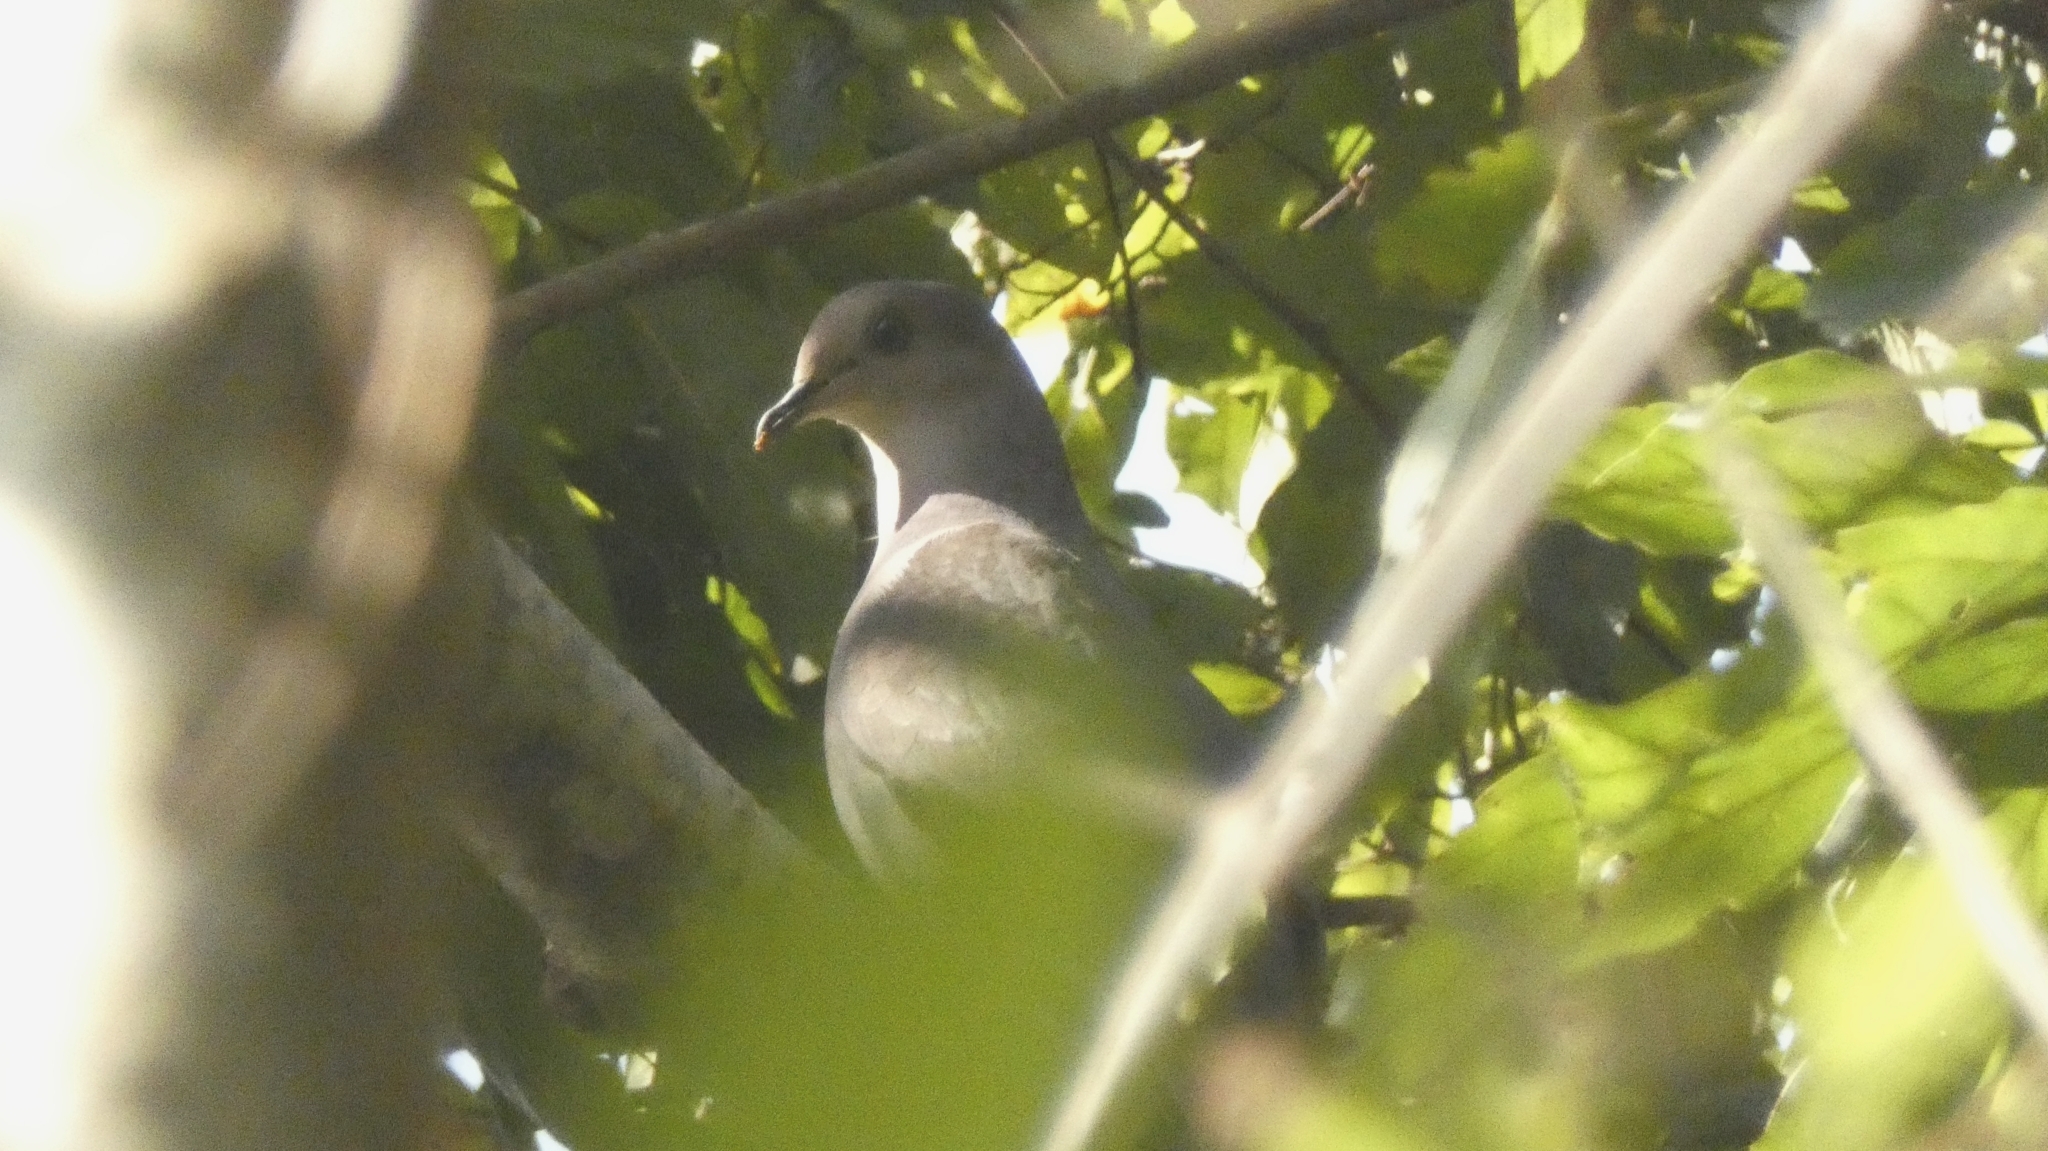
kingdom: Animalia
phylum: Chordata
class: Aves
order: Columbiformes
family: Columbidae
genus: Patagioenas
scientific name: Patagioenas plumbea
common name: Plumbeous pigeon
